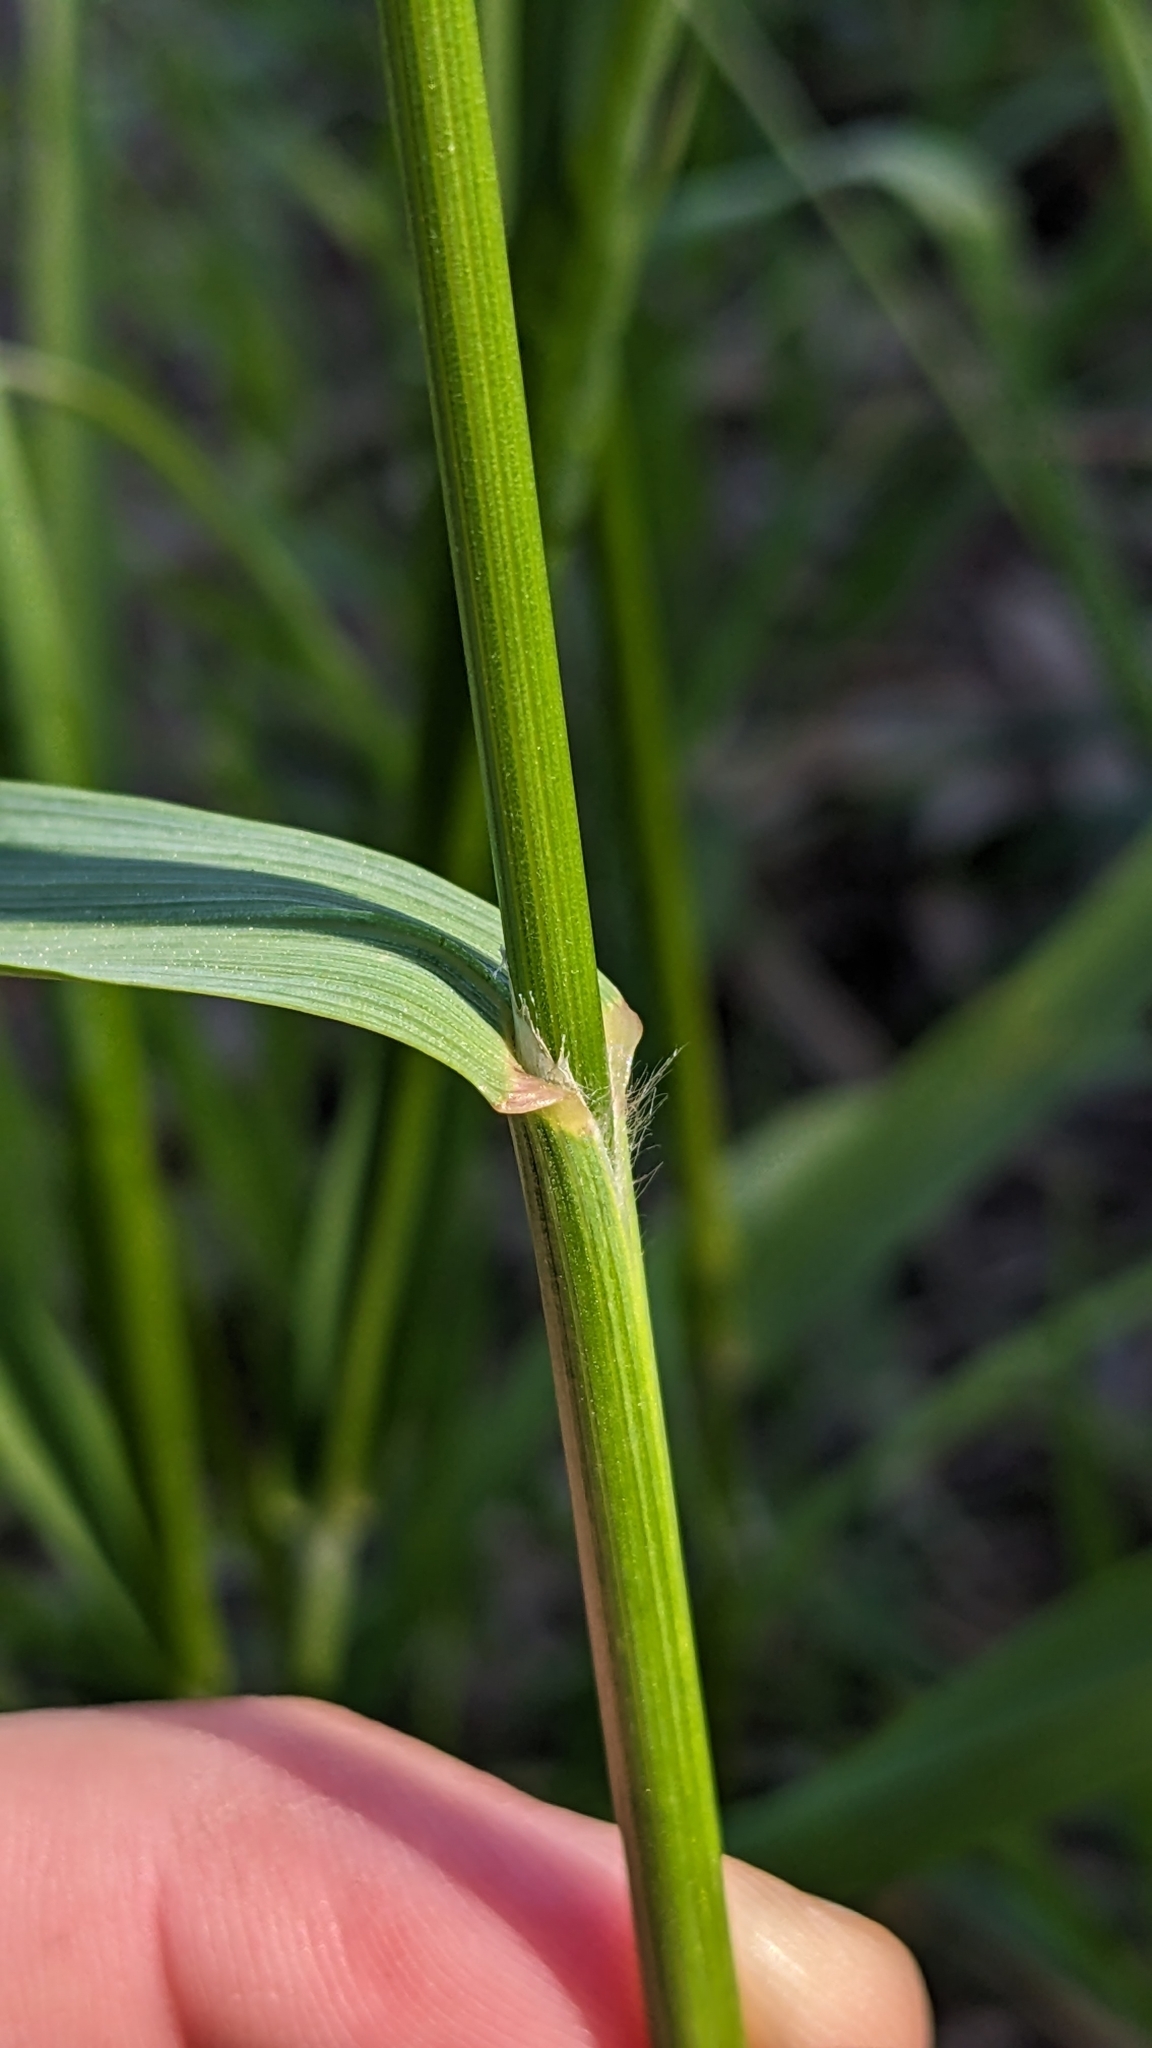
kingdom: Plantae
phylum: Tracheophyta
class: Liliopsida
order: Poales
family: Poaceae
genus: Bromus
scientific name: Bromus catharticus
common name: Rescuegrass
